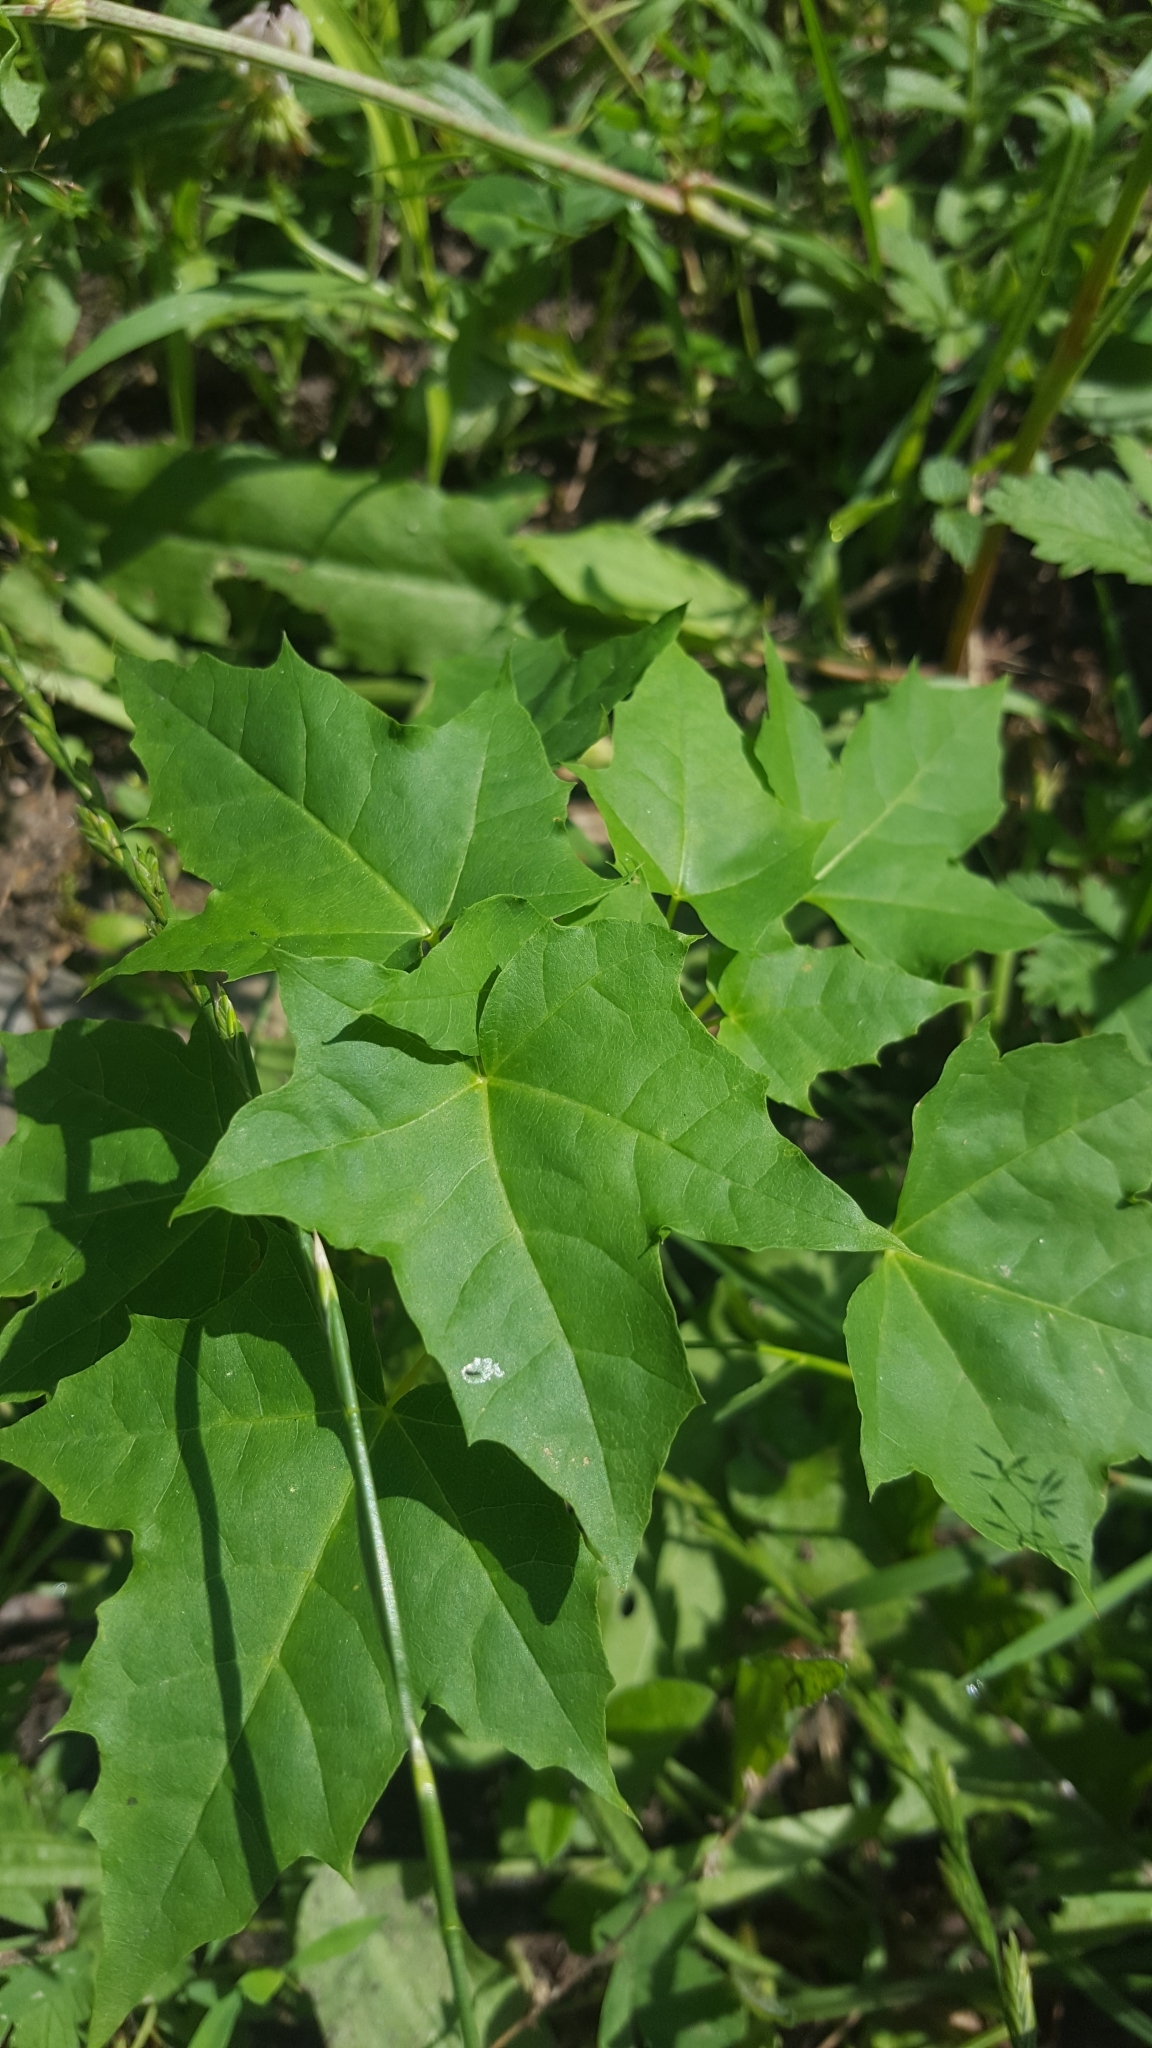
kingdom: Plantae
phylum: Tracheophyta
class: Magnoliopsida
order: Sapindales
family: Sapindaceae
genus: Acer
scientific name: Acer platanoides
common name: Norway maple
